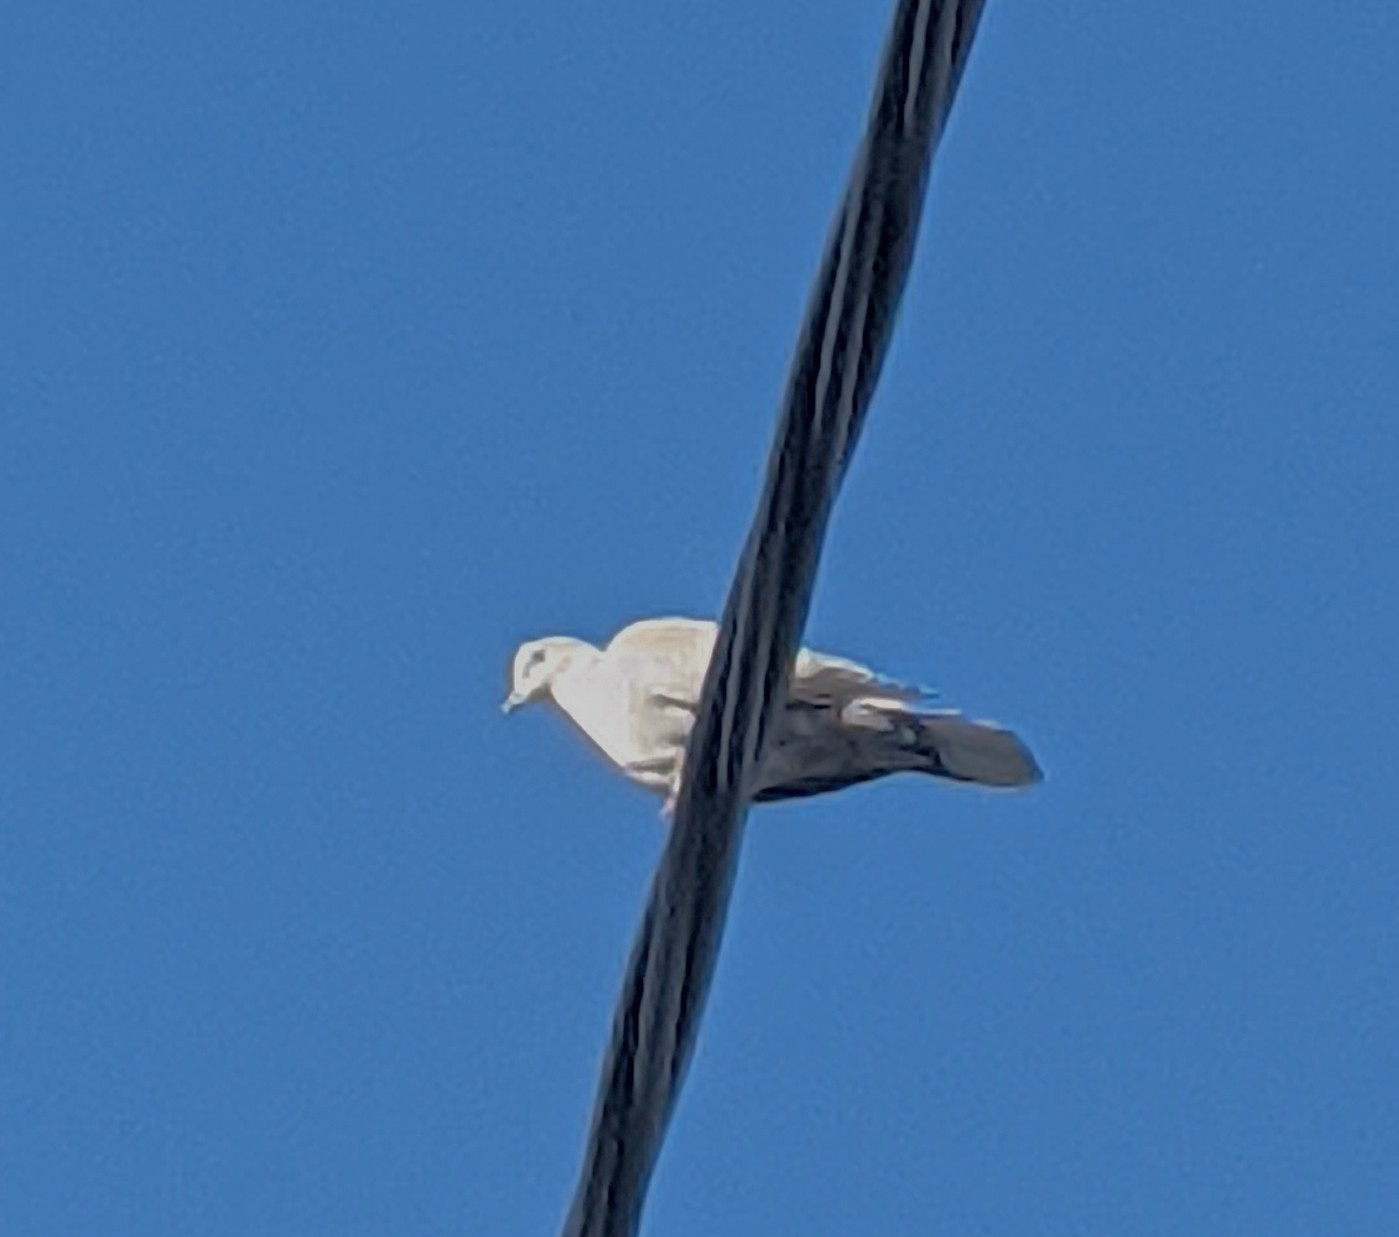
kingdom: Animalia
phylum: Chordata
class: Aves
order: Columbiformes
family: Columbidae
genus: Streptopelia
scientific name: Streptopelia decaocto
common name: Eurasian collared dove
